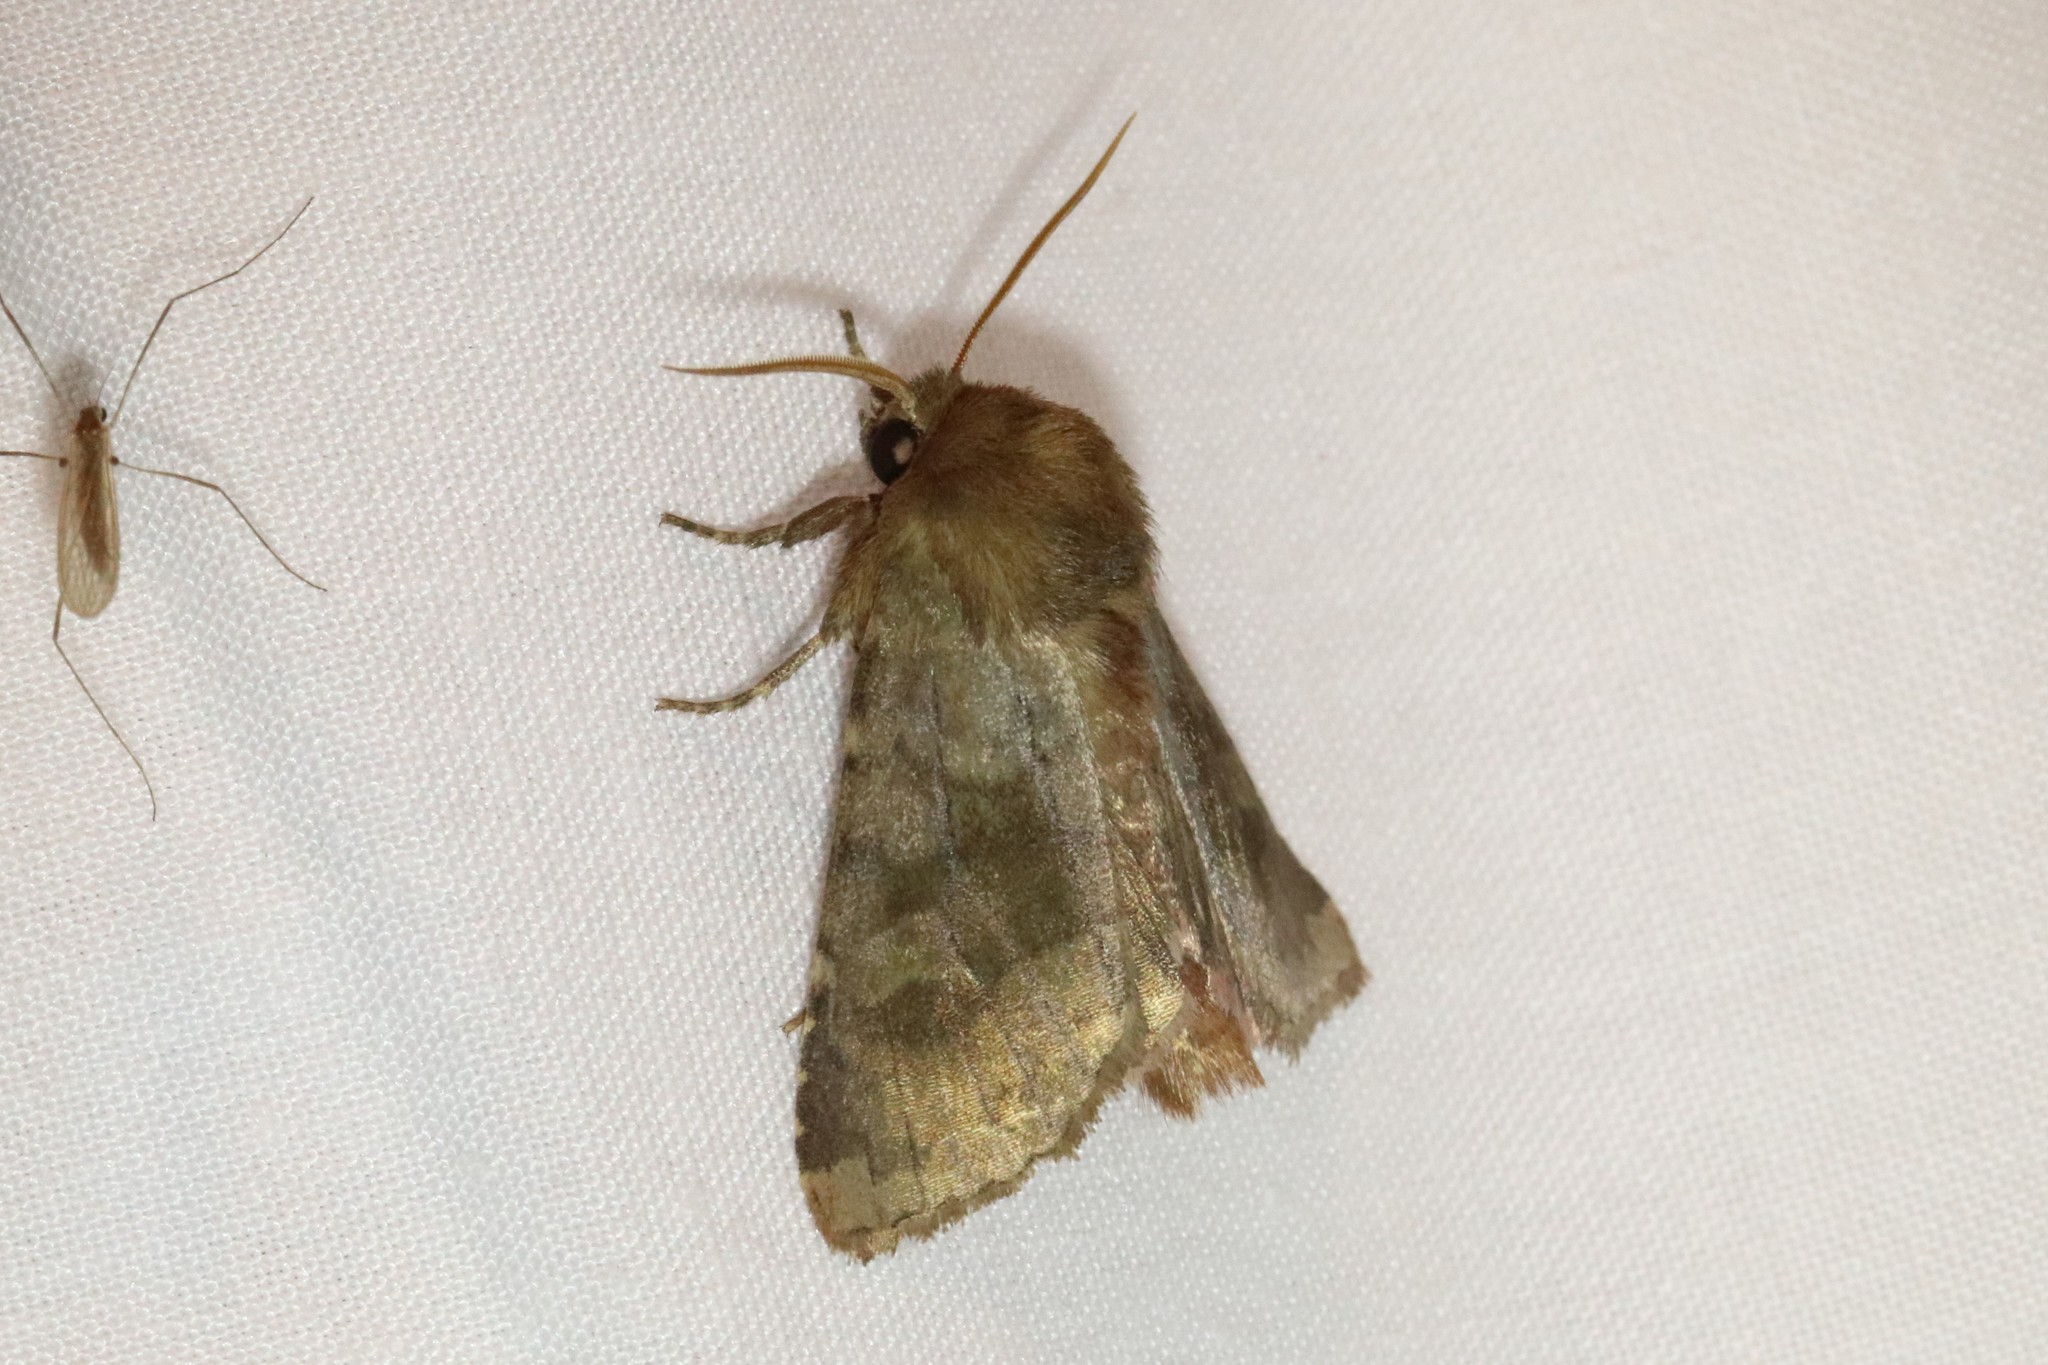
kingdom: Animalia
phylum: Arthropoda
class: Insecta
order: Lepidoptera
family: Noctuidae
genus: Nephelodes
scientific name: Nephelodes minians
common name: Bronzed cutworm
